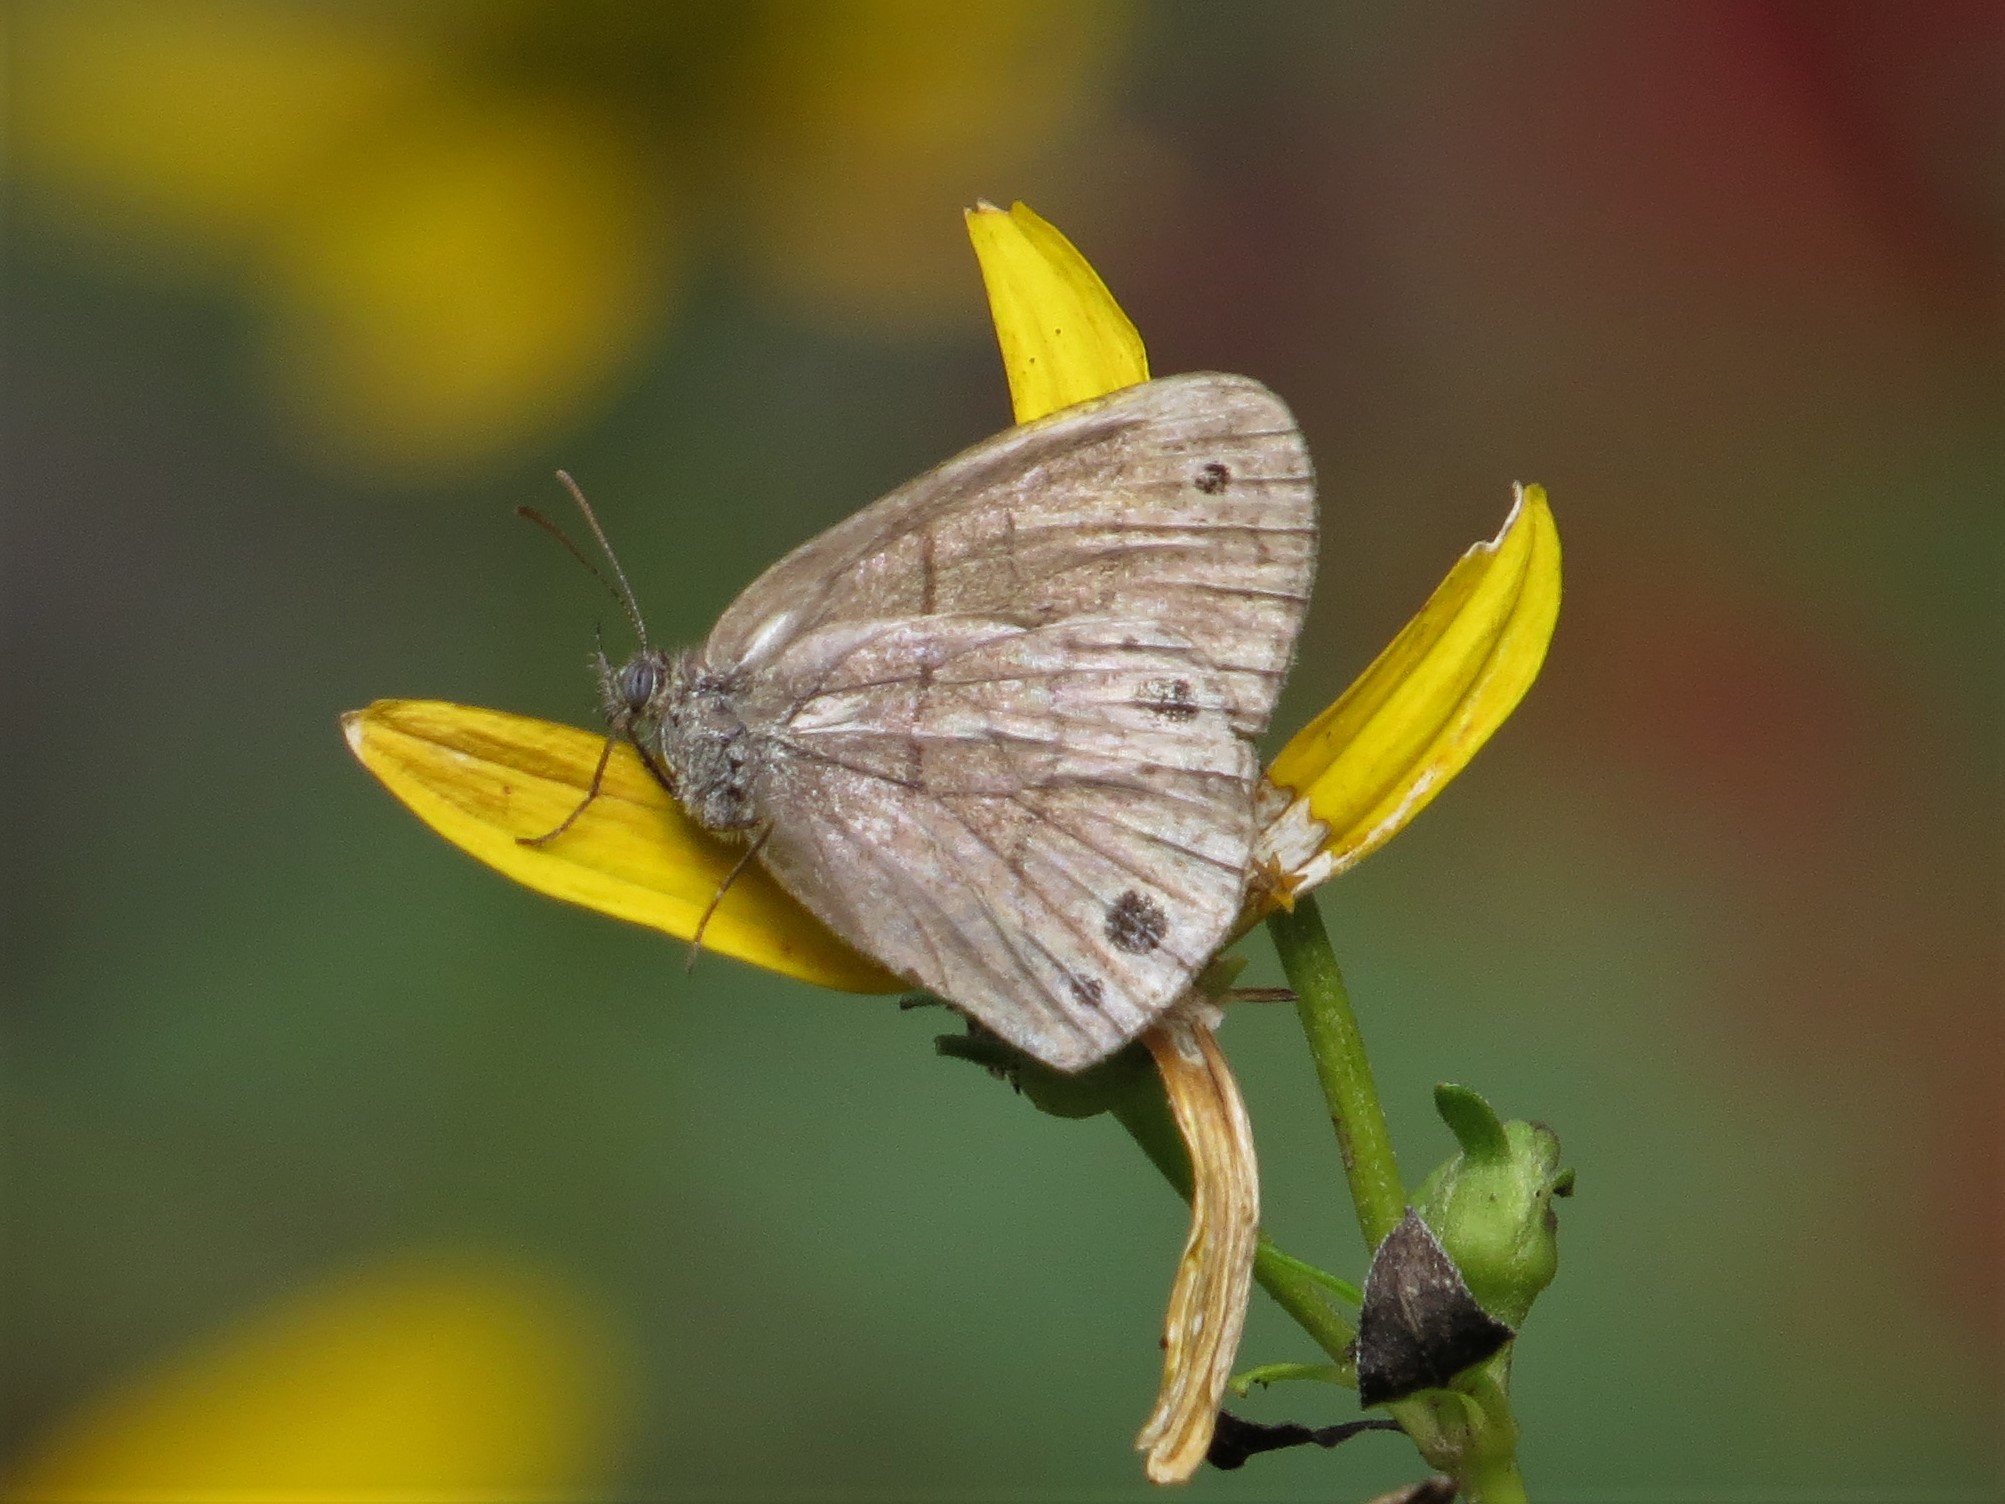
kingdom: Animalia
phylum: Arthropoda
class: Insecta
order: Lepidoptera
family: Nymphalidae
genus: Hermeuptychia
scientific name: Hermeuptychia hermes
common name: Hermes satyr
